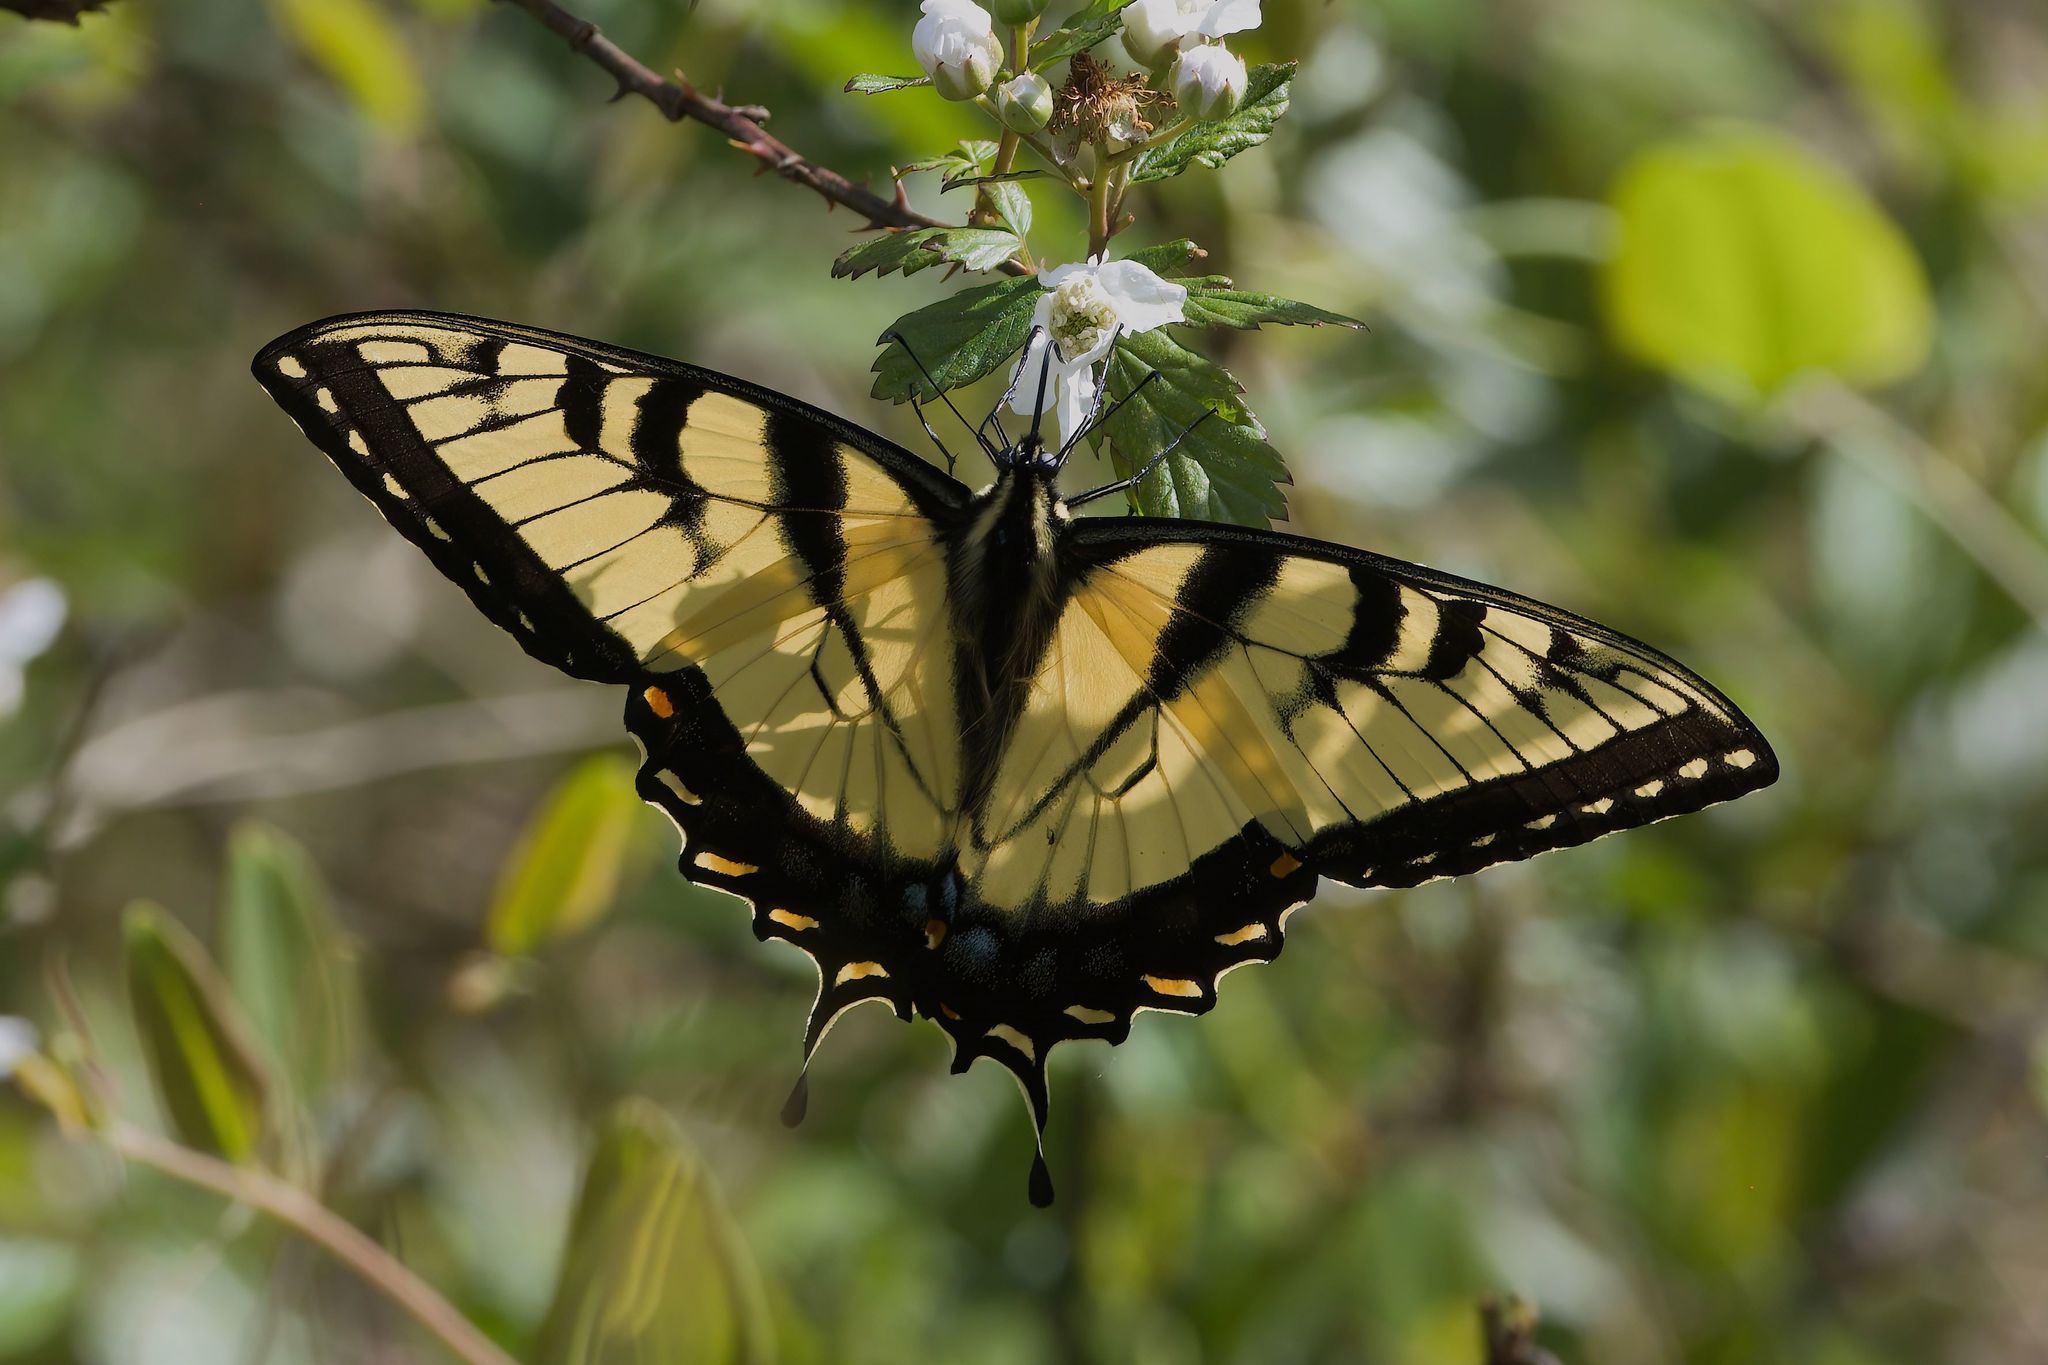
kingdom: Animalia
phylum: Arthropoda
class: Insecta
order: Lepidoptera
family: Papilionidae
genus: Papilio
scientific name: Papilio glaucus
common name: Tiger swallowtail
